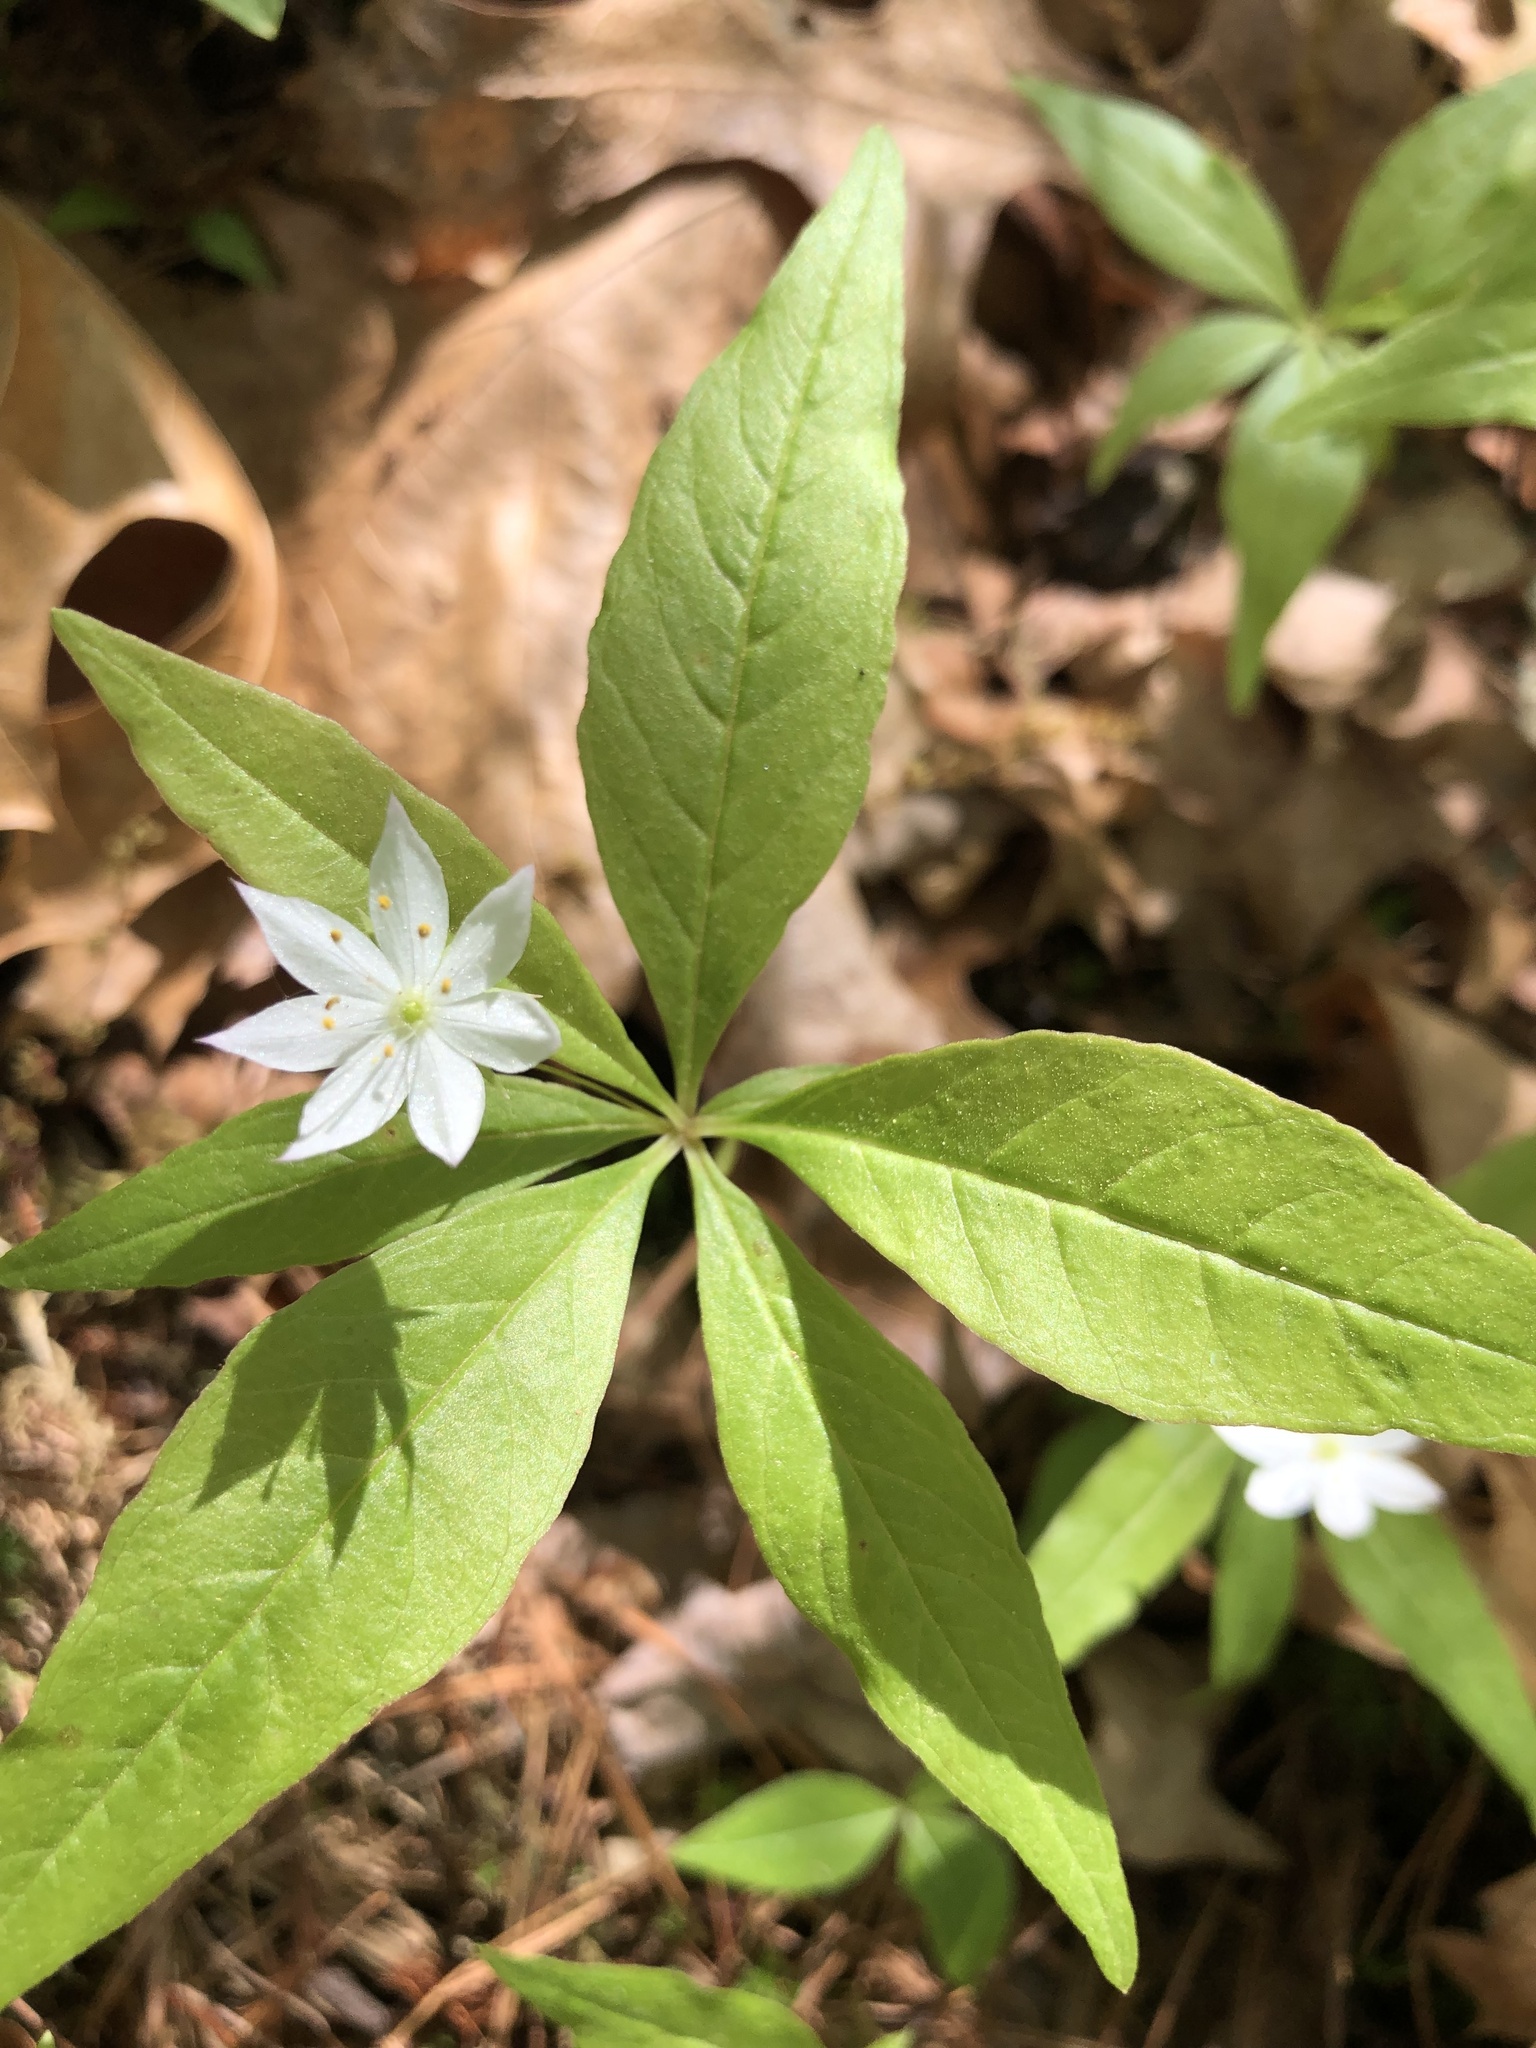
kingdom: Plantae
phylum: Tracheophyta
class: Magnoliopsida
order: Ericales
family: Primulaceae
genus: Lysimachia
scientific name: Lysimachia borealis
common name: American starflower
